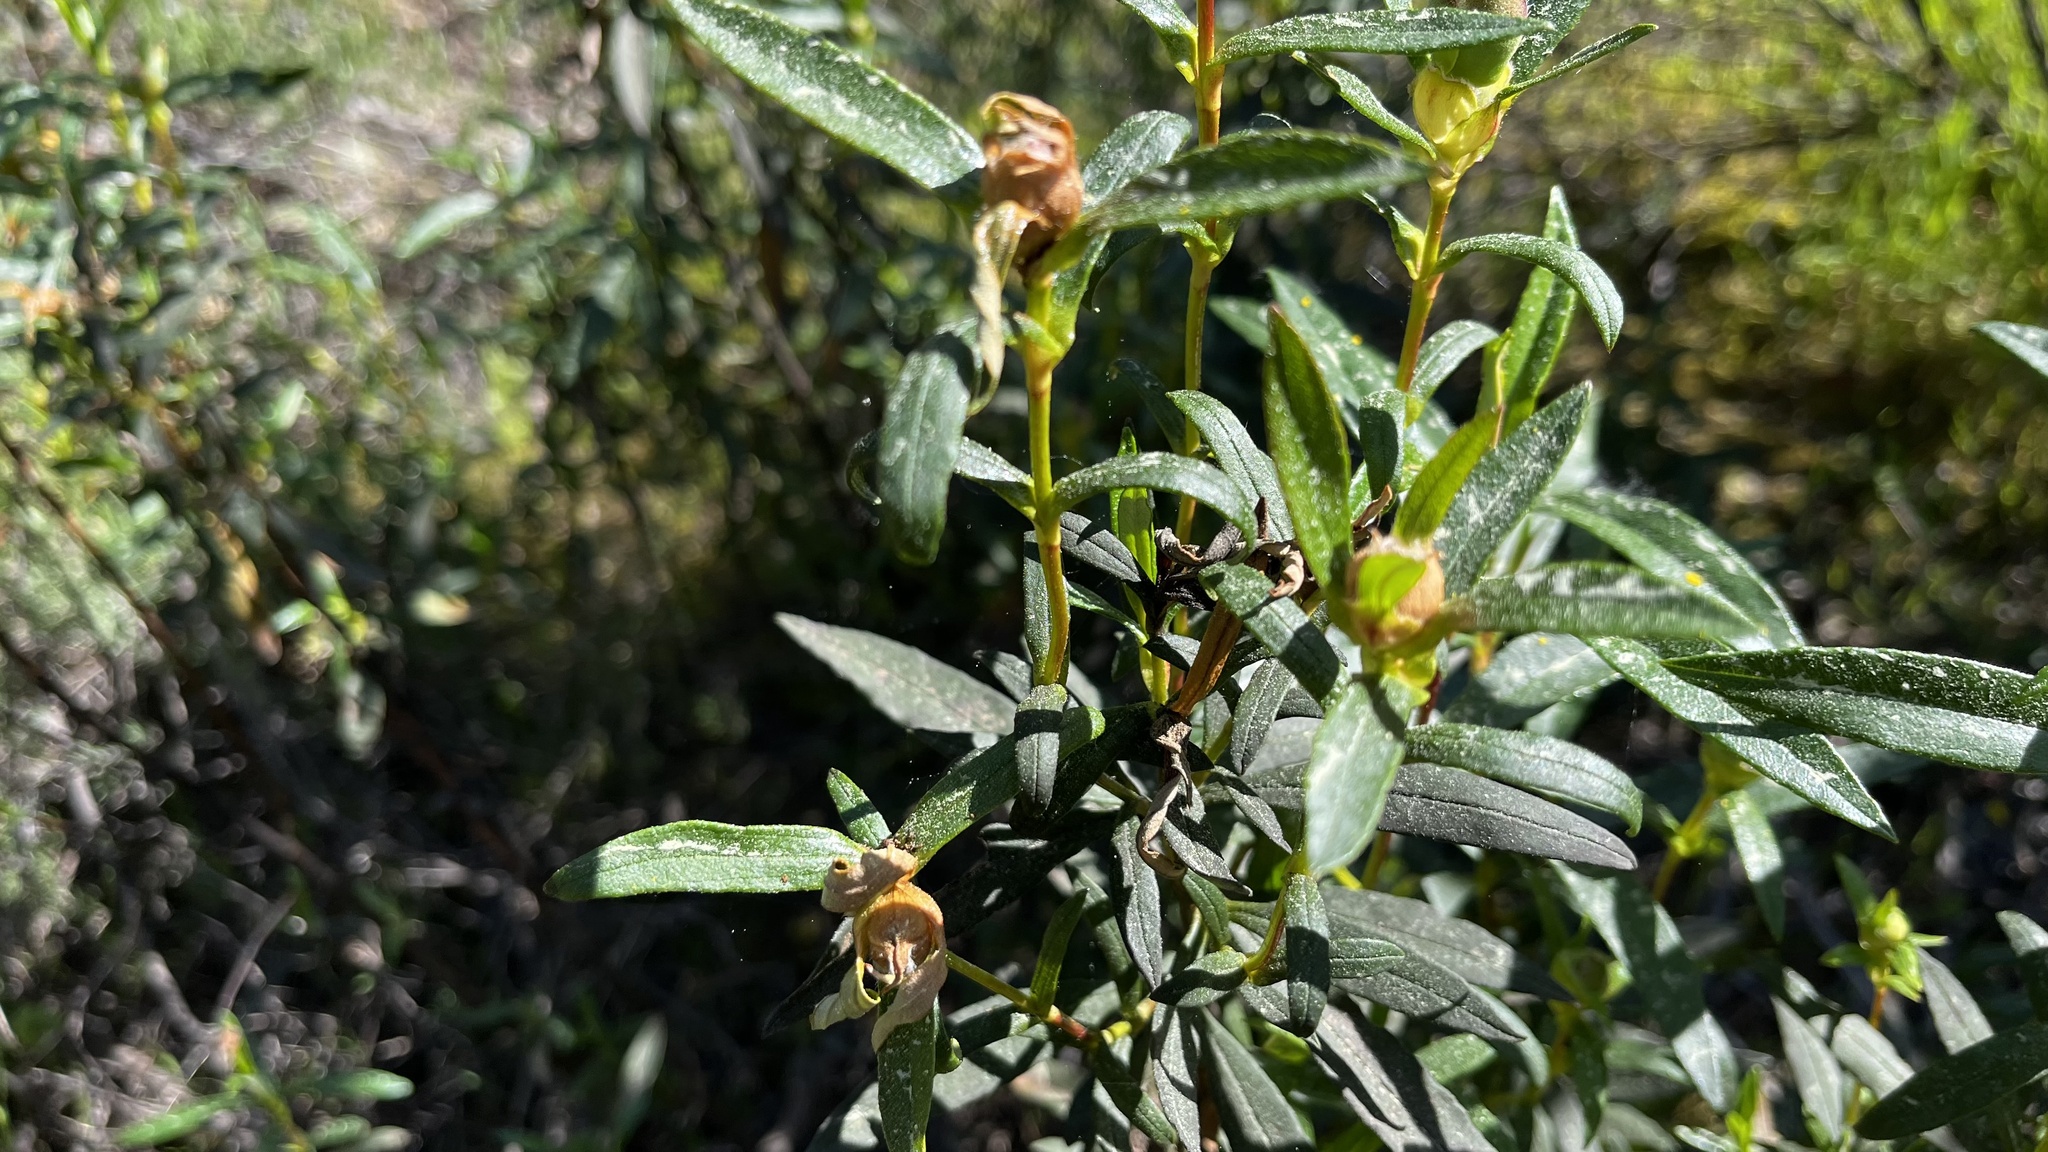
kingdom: Plantae
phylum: Tracheophyta
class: Magnoliopsida
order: Malvales
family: Cistaceae
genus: Cistus
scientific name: Cistus ladanifer
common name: Common gum cistus
